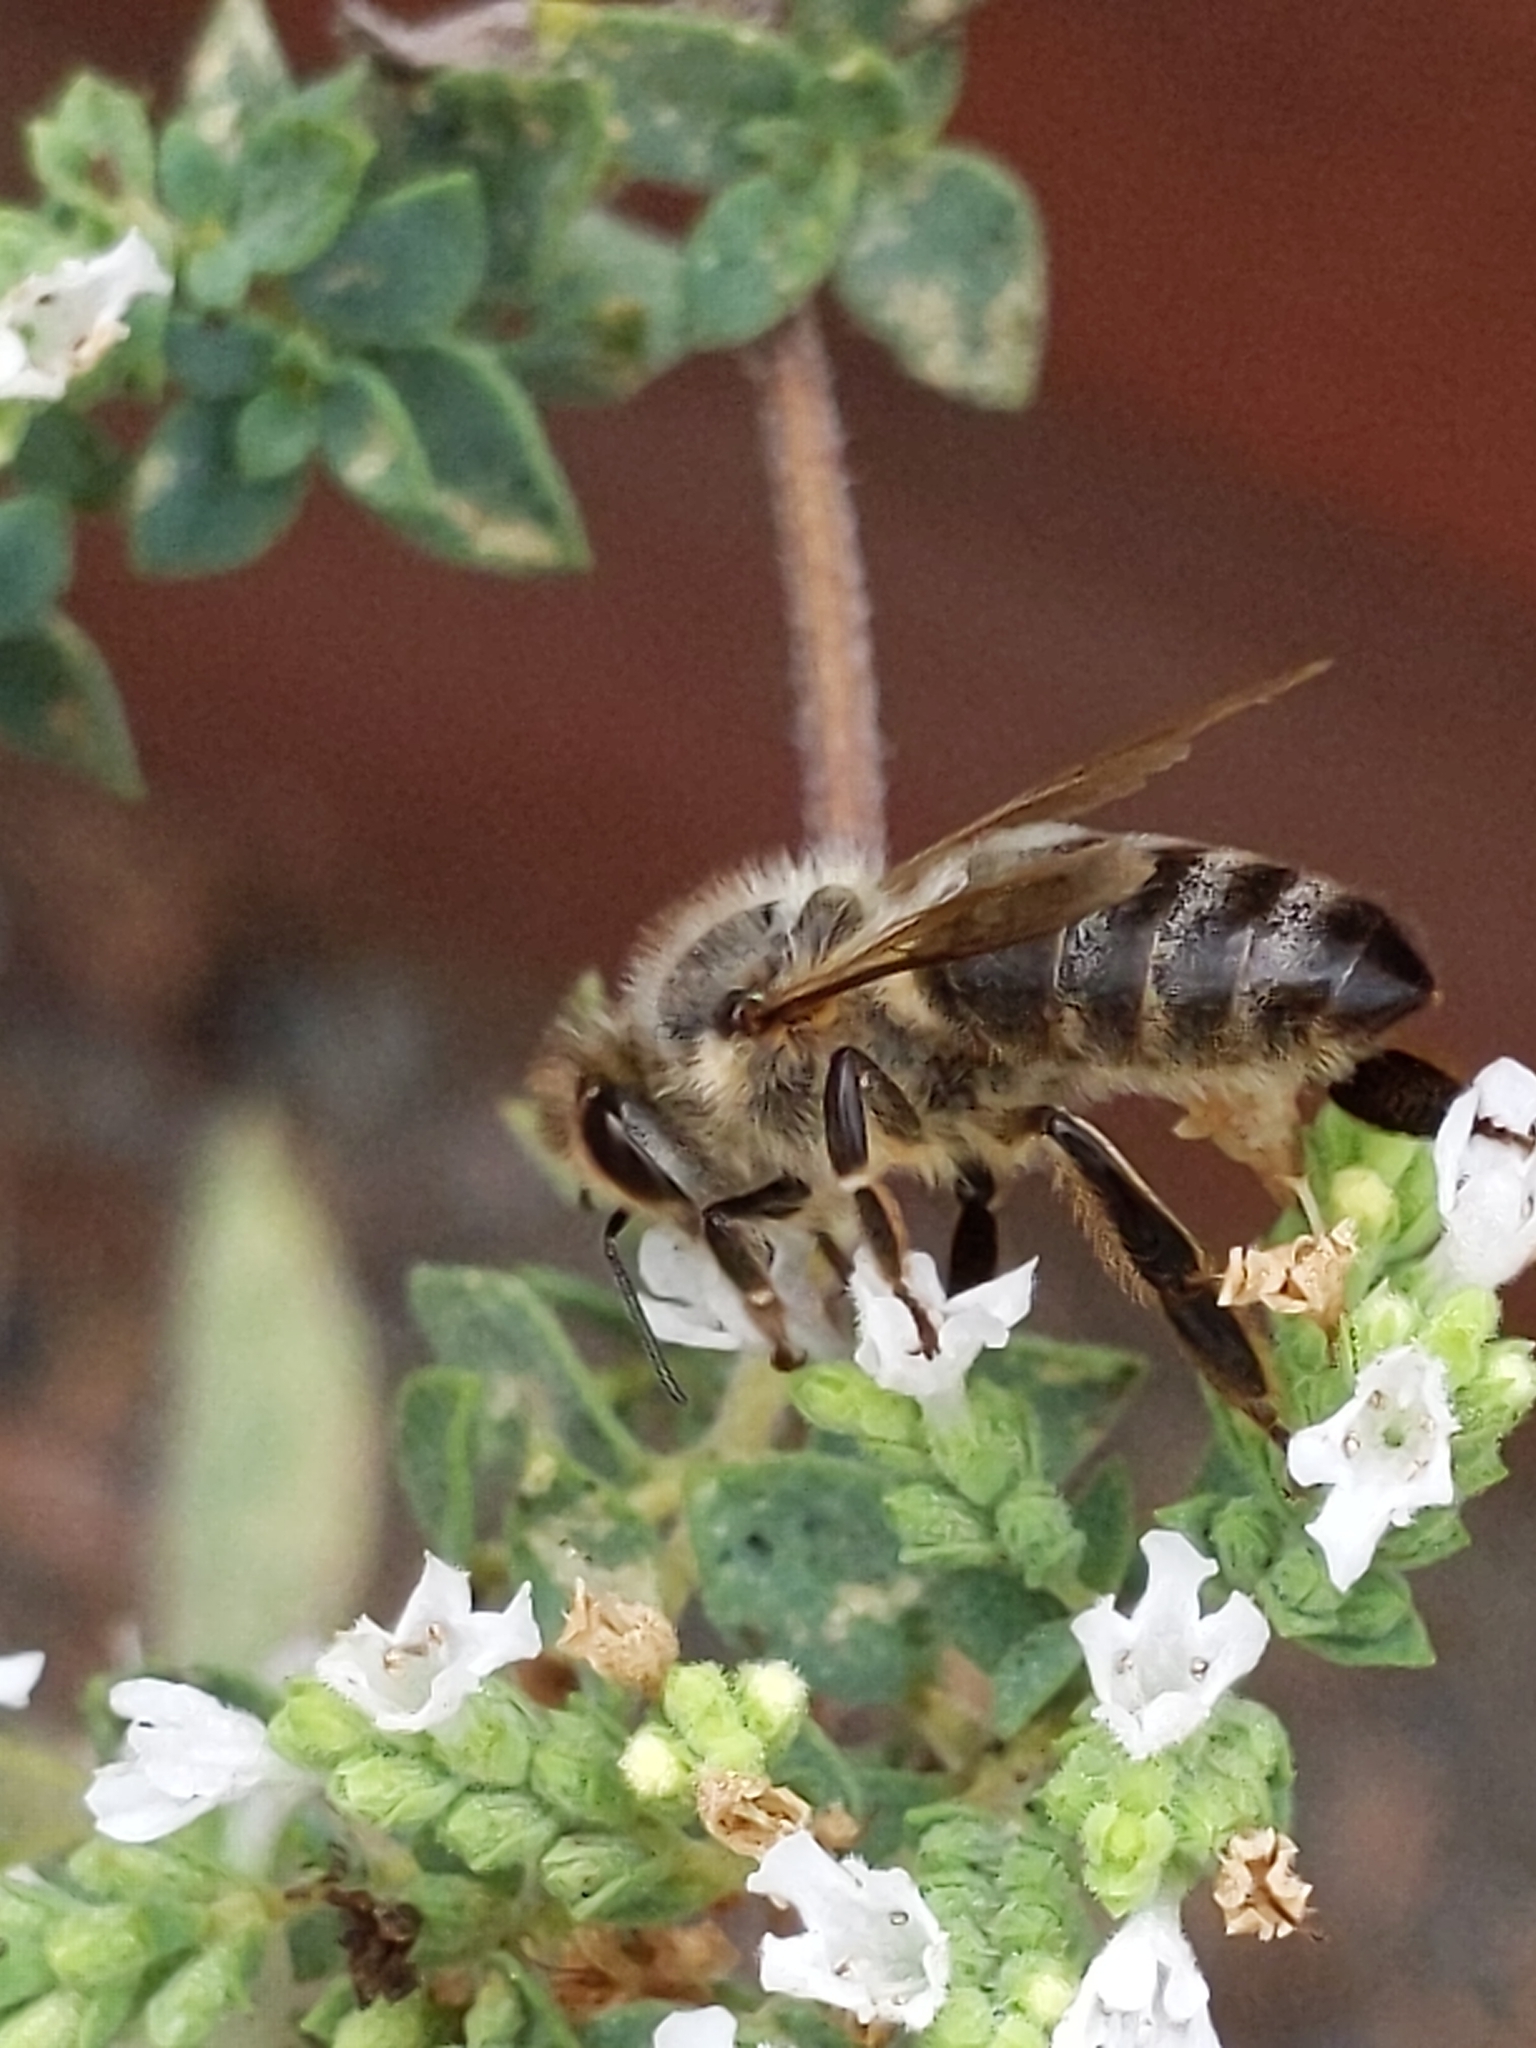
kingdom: Animalia
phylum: Arthropoda
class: Insecta
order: Hymenoptera
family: Apidae
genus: Apis
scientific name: Apis mellifera
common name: Honey bee
